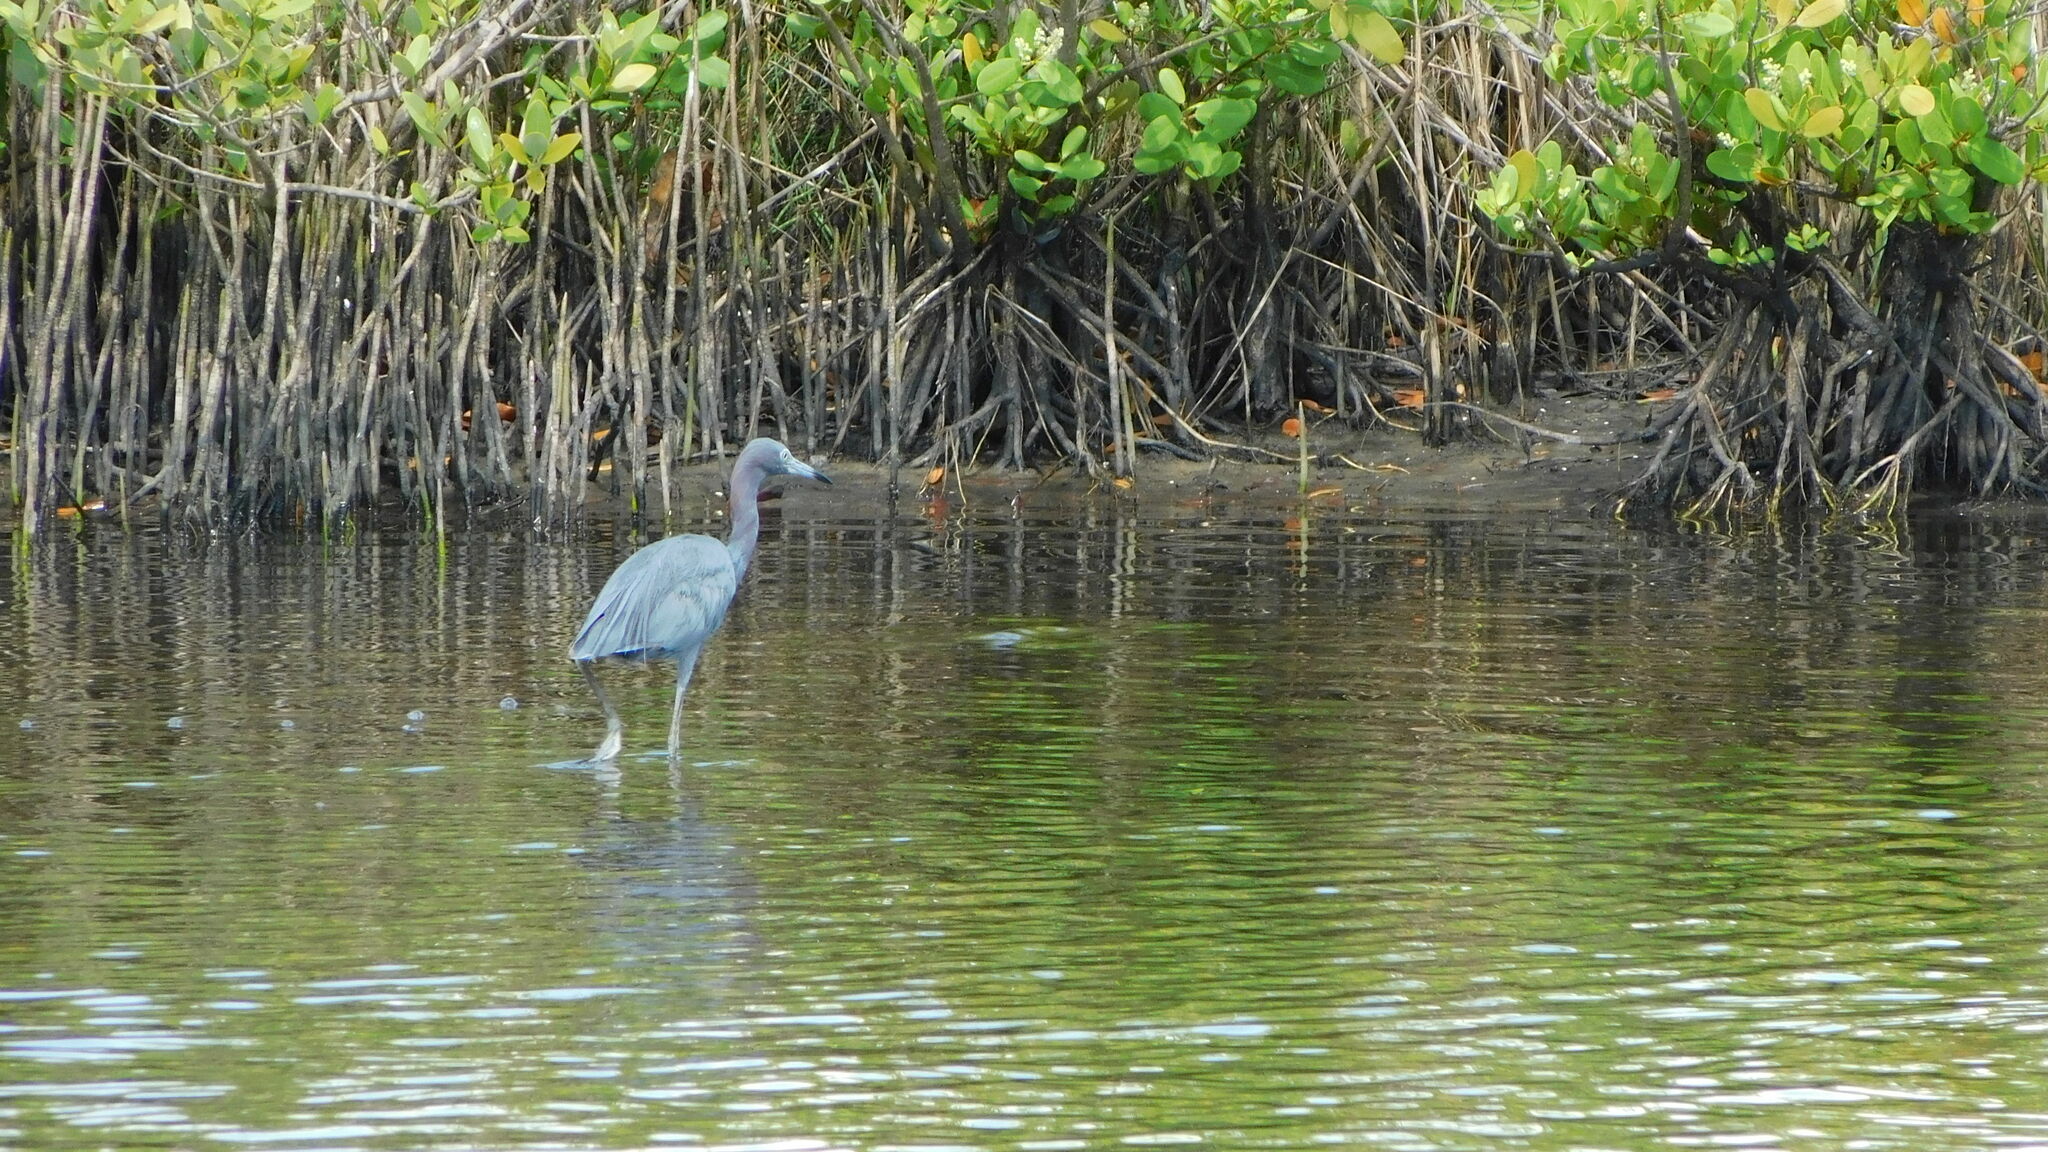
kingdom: Animalia
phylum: Chordata
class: Aves
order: Pelecaniformes
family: Ardeidae
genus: Egretta
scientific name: Egretta caerulea
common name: Little blue heron
